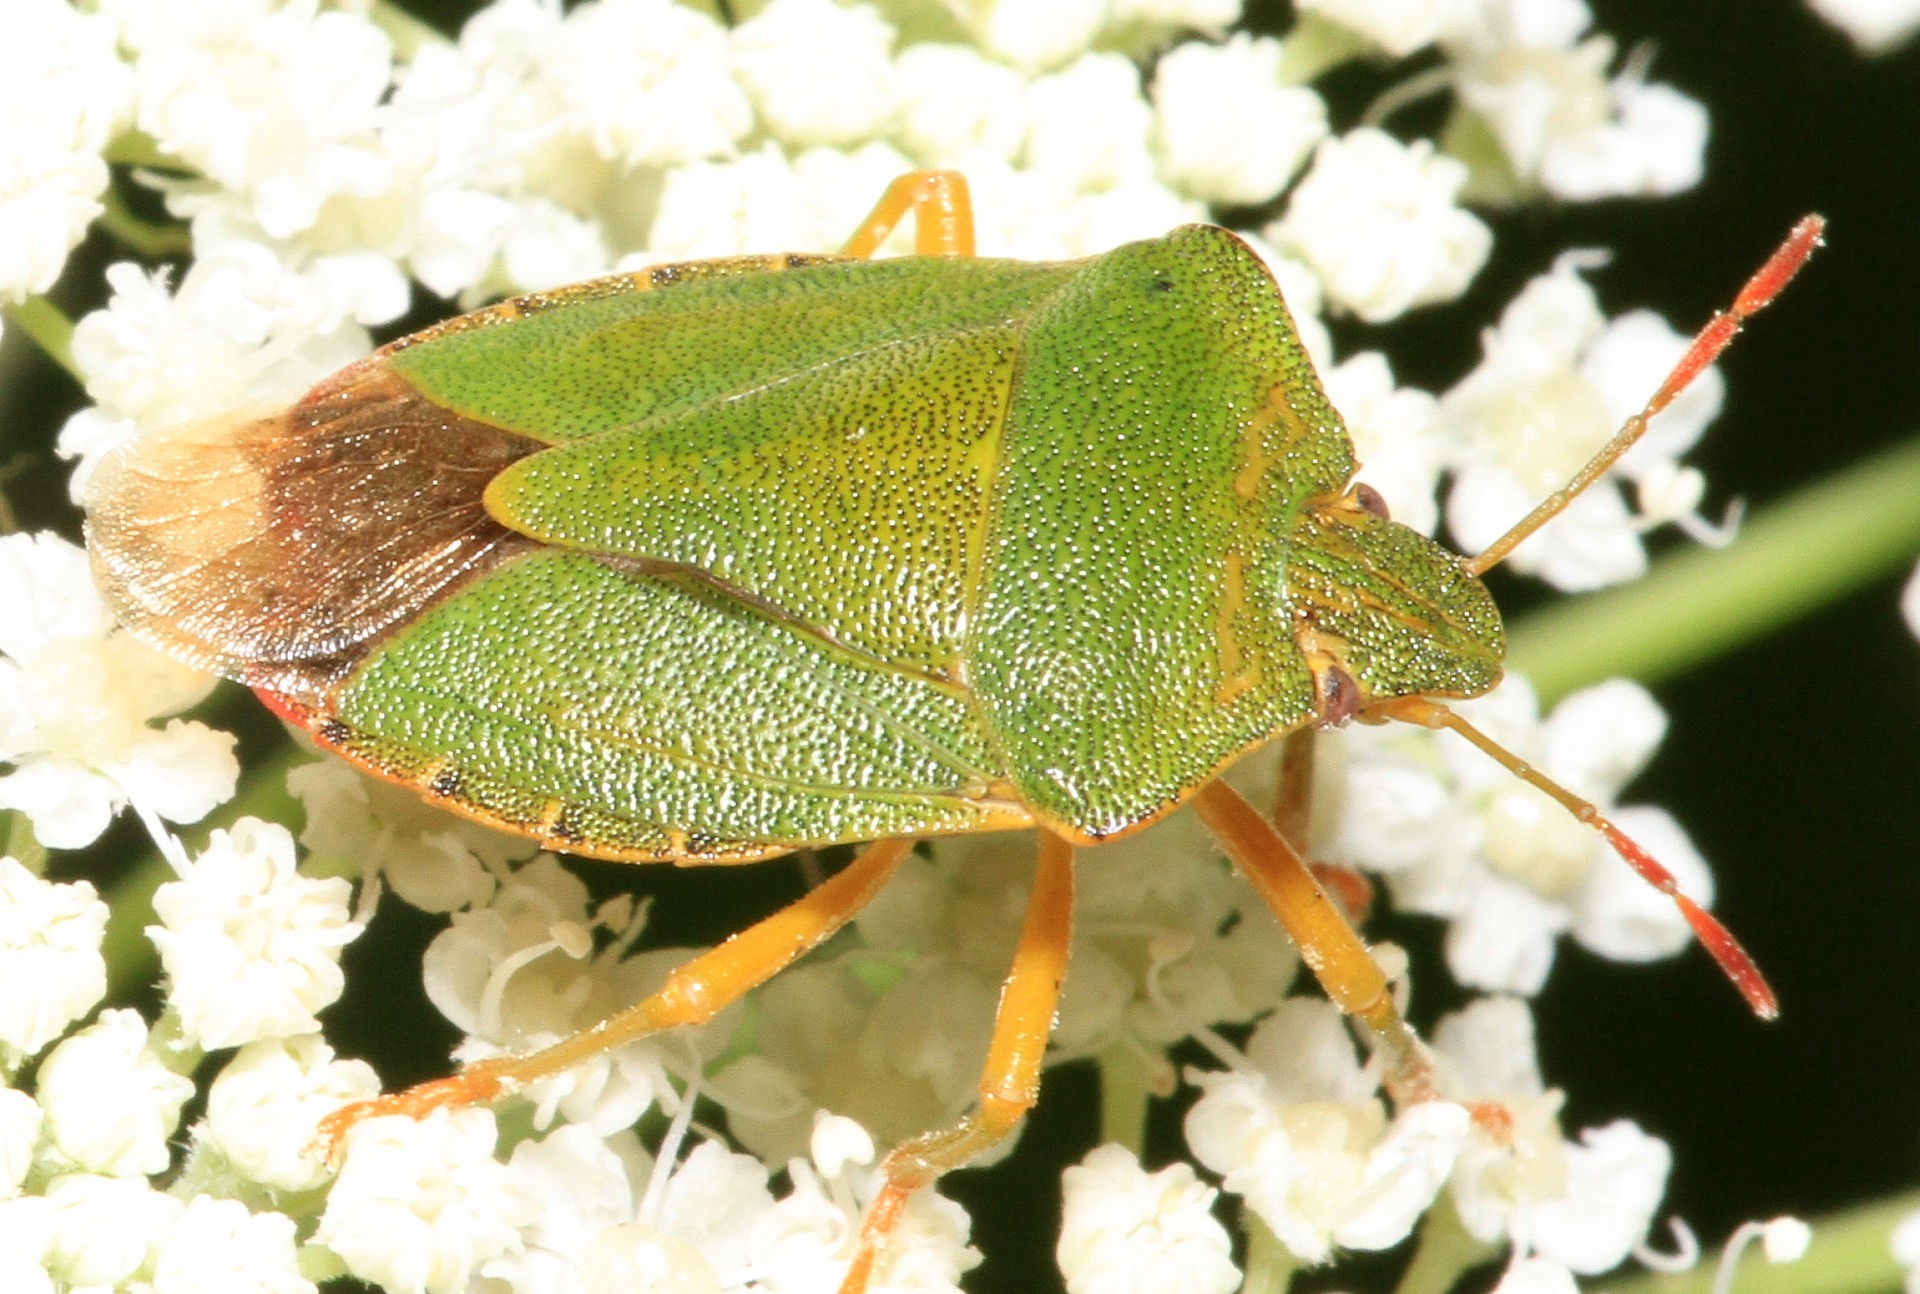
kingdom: Animalia
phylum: Arthropoda
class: Insecta
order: Hemiptera
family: Pentatomidae
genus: Palomena
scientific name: Palomena prasina
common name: Green shieldbug
